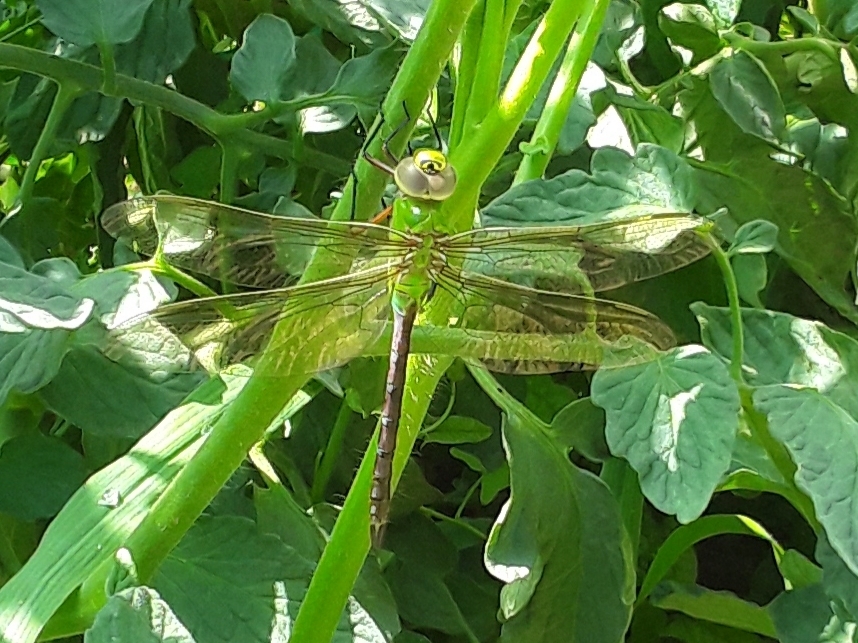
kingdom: Animalia
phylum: Arthropoda
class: Insecta
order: Odonata
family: Aeshnidae
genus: Anax
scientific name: Anax junius
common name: Common green darner
